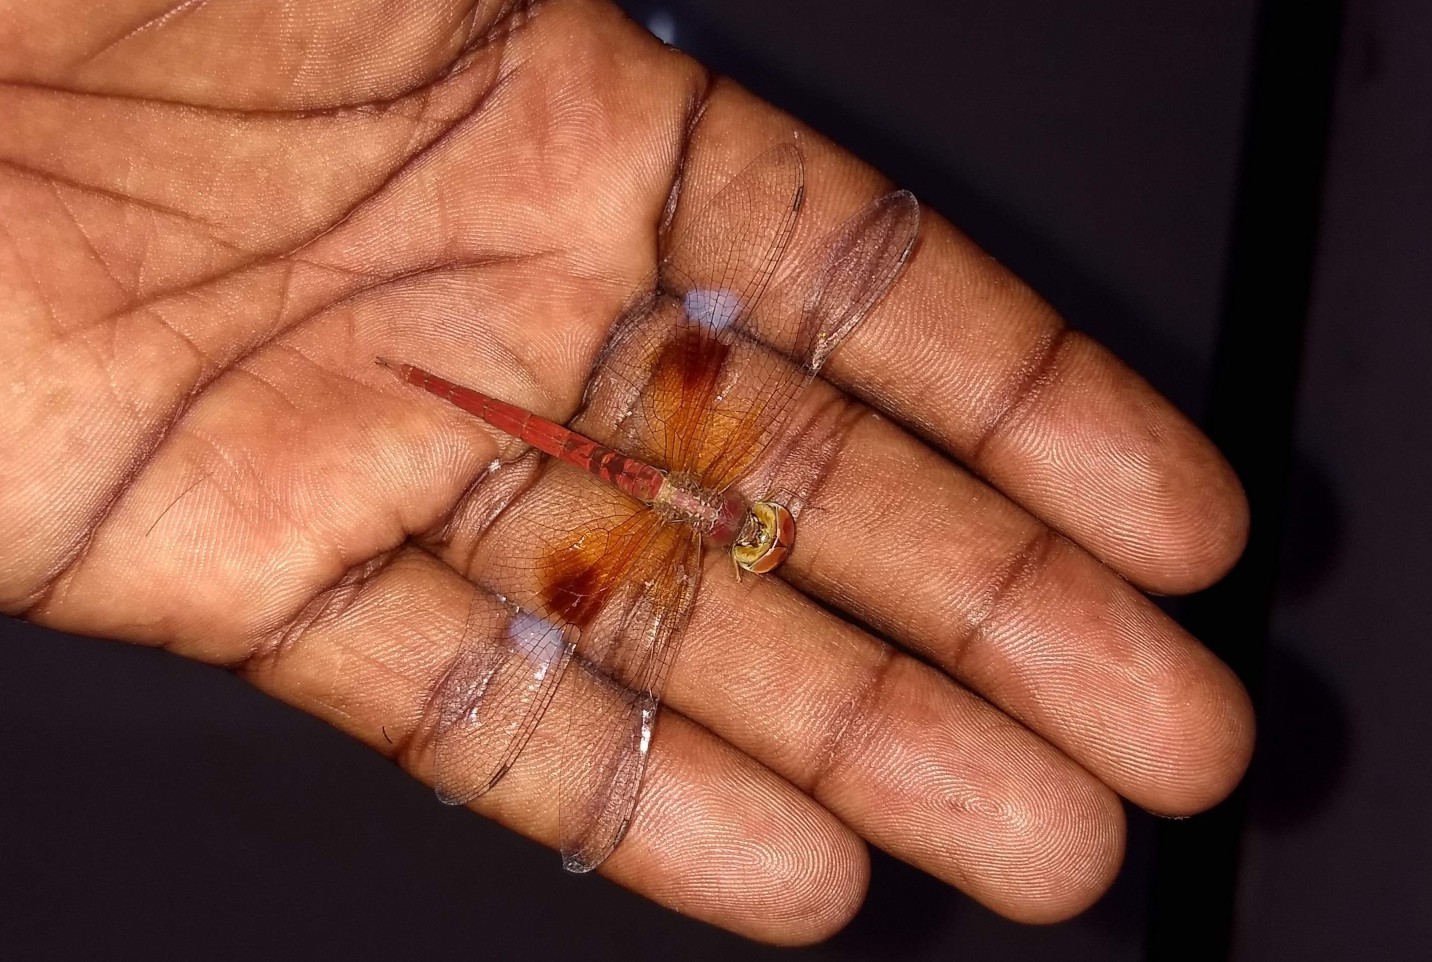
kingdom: Animalia
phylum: Arthropoda
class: Insecta
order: Odonata
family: Libellulidae
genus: Tholymis
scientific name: Tholymis tillarga
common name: Coral-tailed cloud wing
